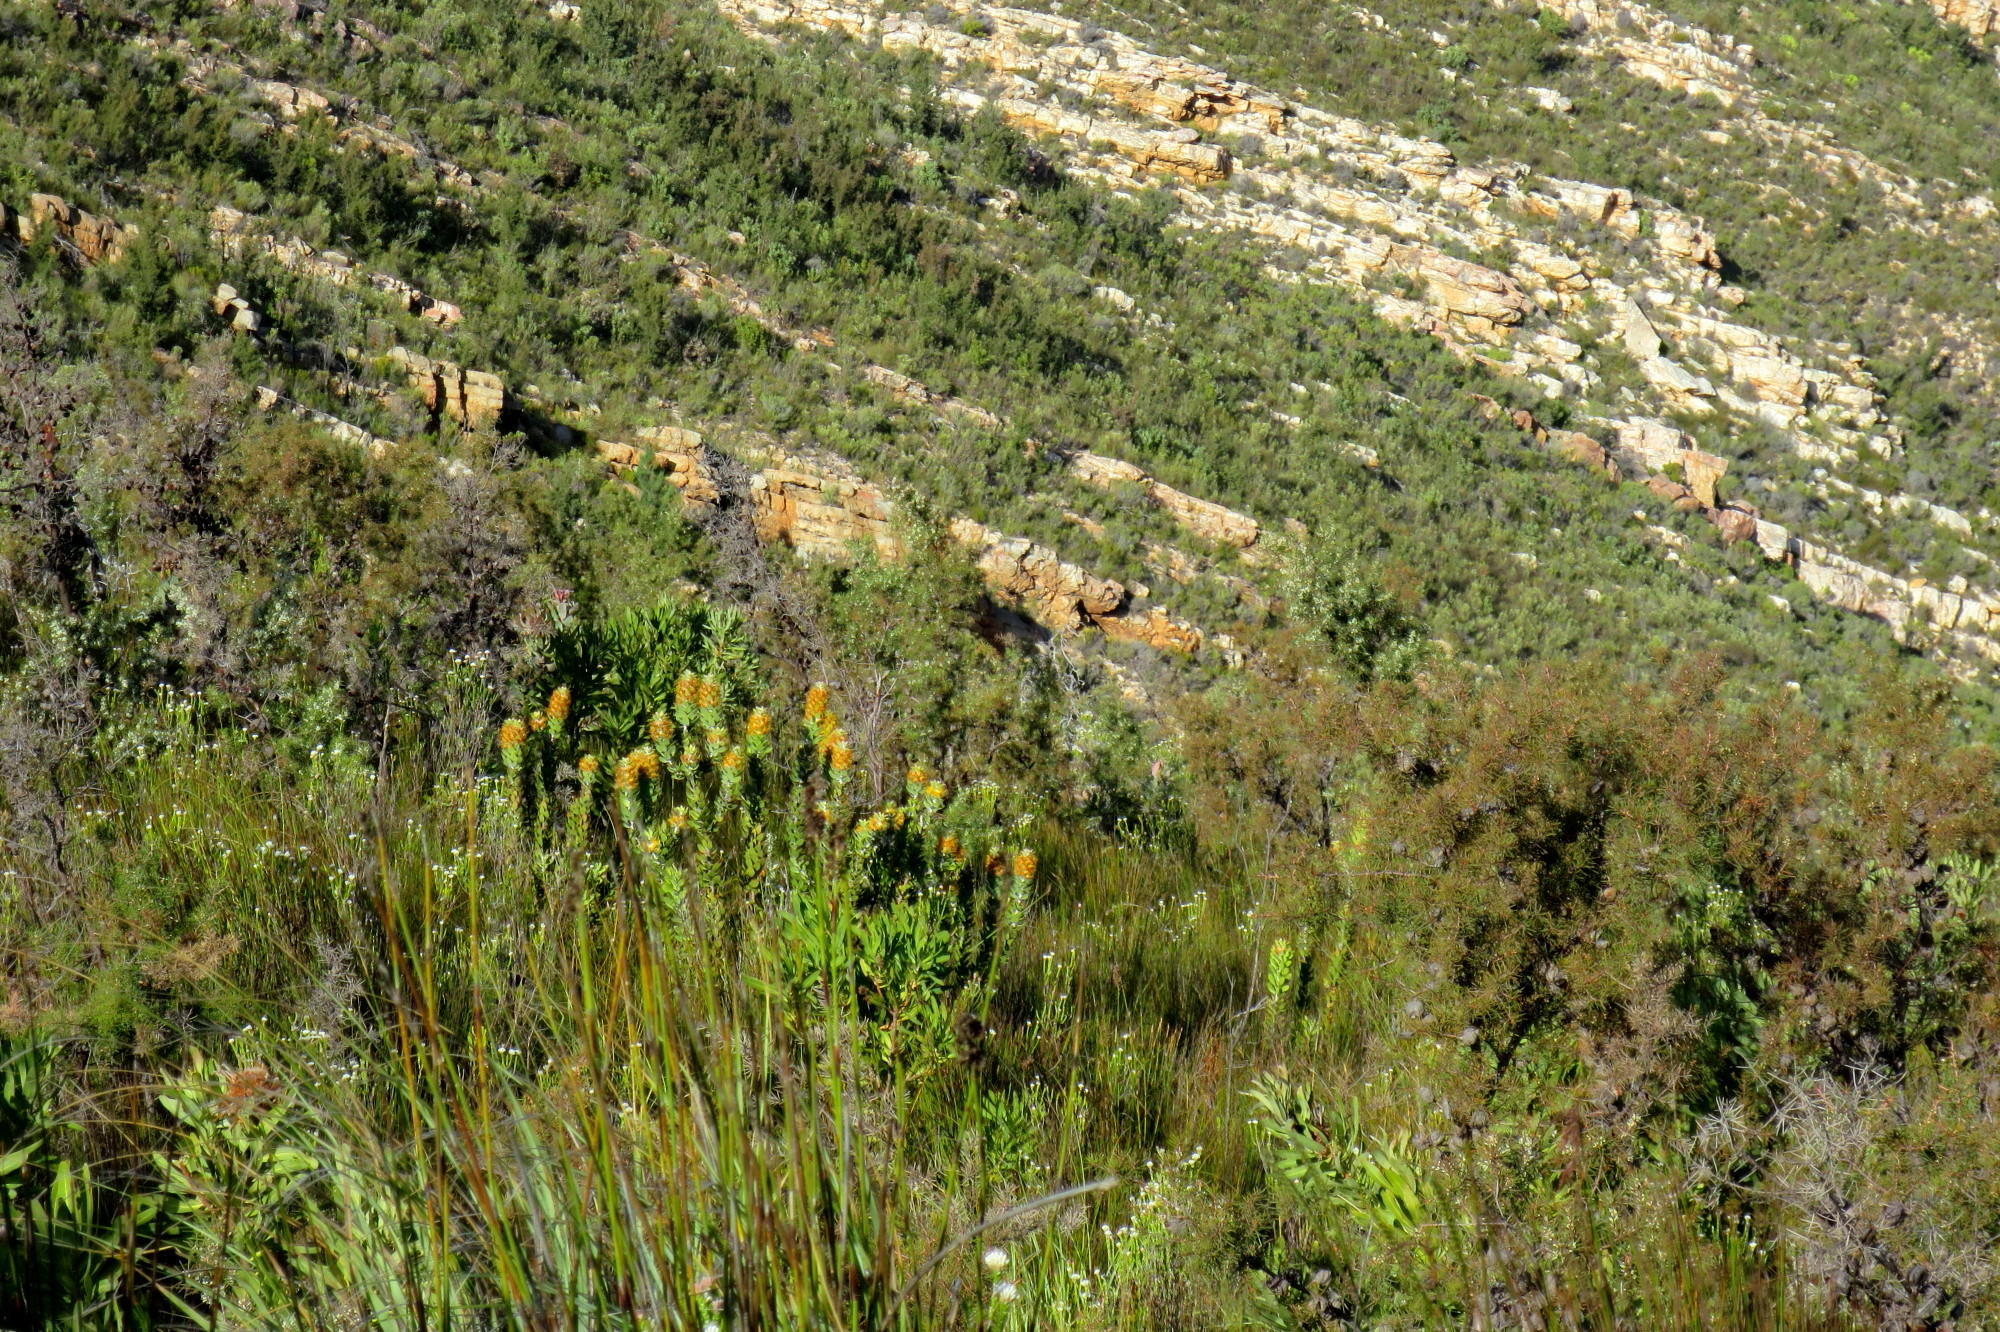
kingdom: Plantae
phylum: Tracheophyta
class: Magnoliopsida
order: Proteales
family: Proteaceae
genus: Mimetes
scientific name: Mimetes chrysanthus
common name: Golden pagoda
